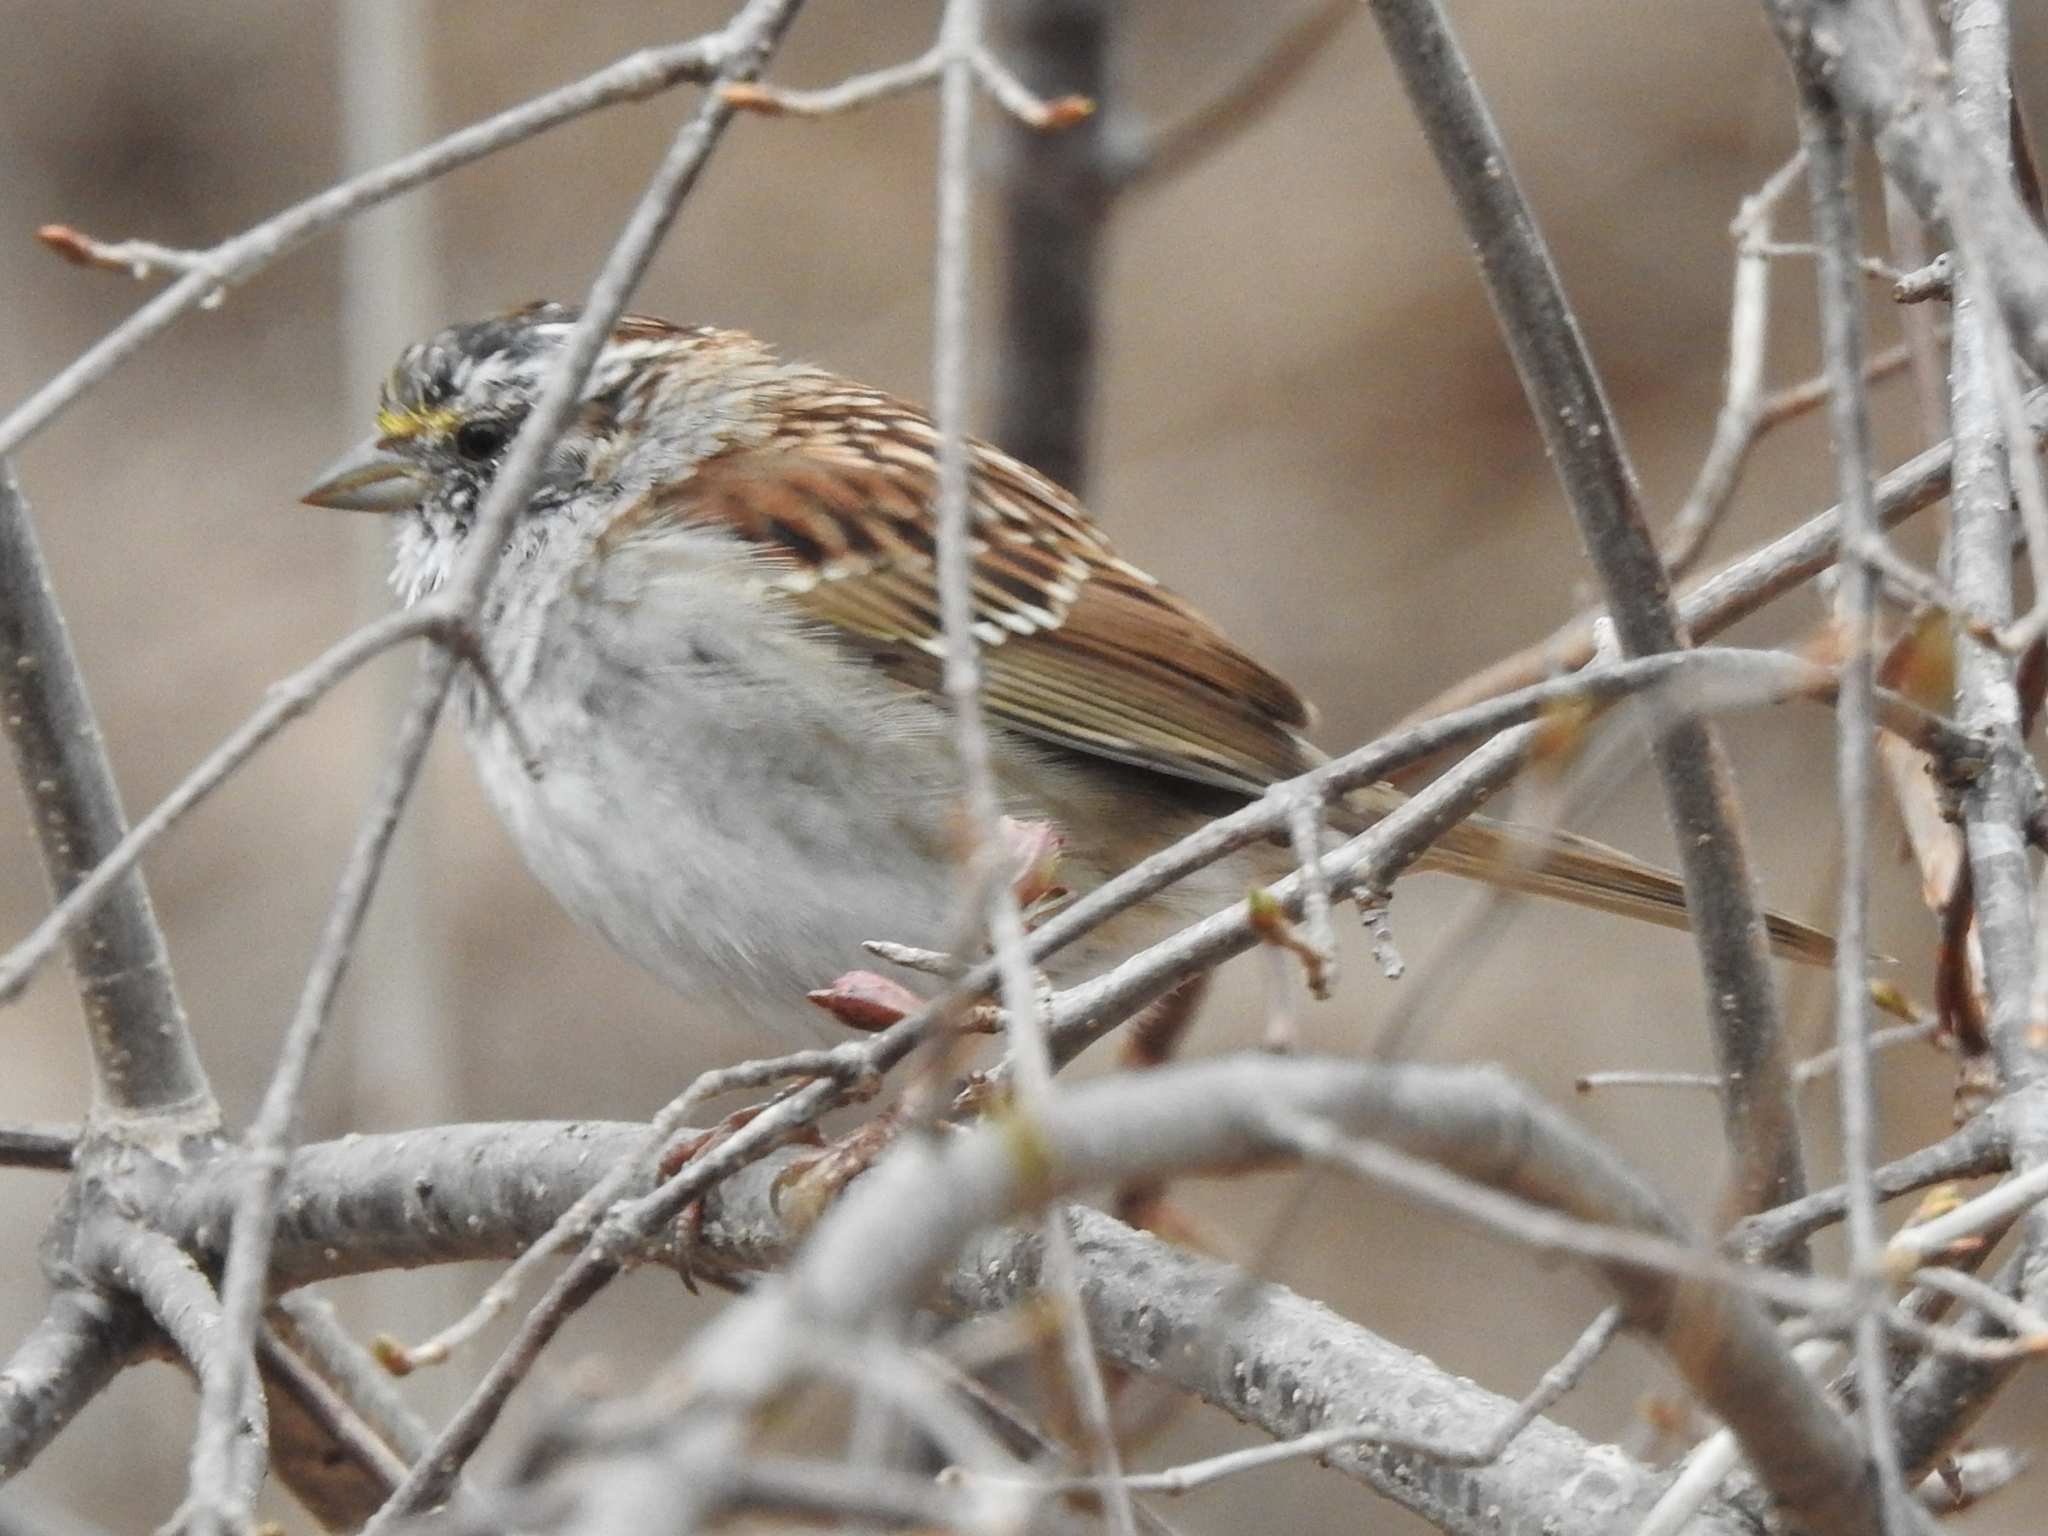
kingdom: Animalia
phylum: Chordata
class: Aves
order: Passeriformes
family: Passerellidae
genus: Zonotrichia
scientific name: Zonotrichia albicollis
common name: White-throated sparrow
